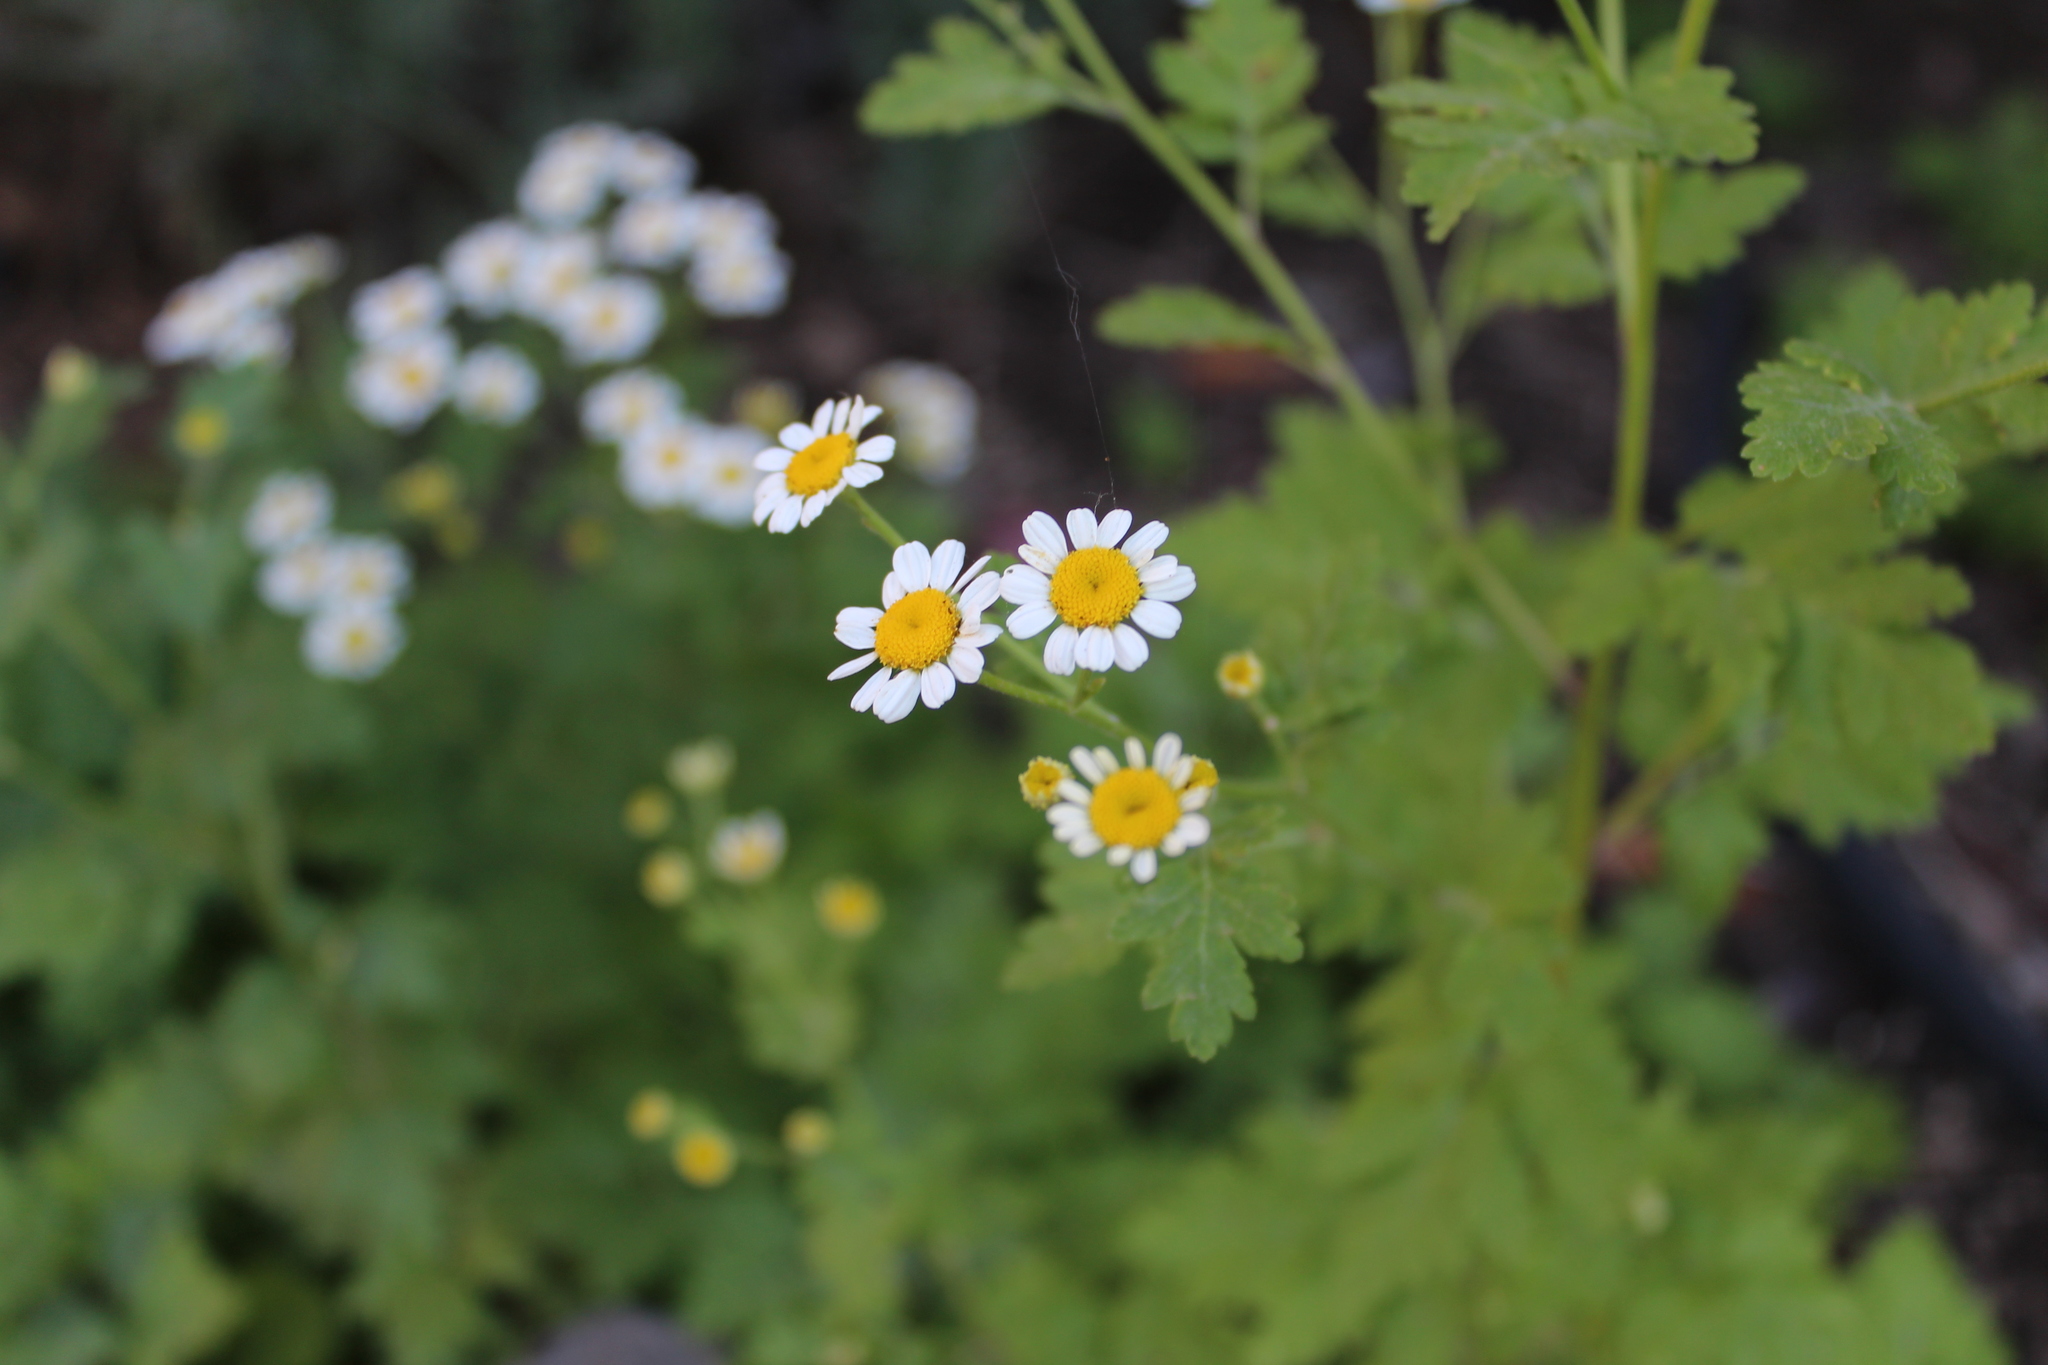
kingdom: Plantae
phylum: Tracheophyta
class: Magnoliopsida
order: Asterales
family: Asteraceae
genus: Tanacetum
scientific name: Tanacetum parthenium
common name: Feverfew
